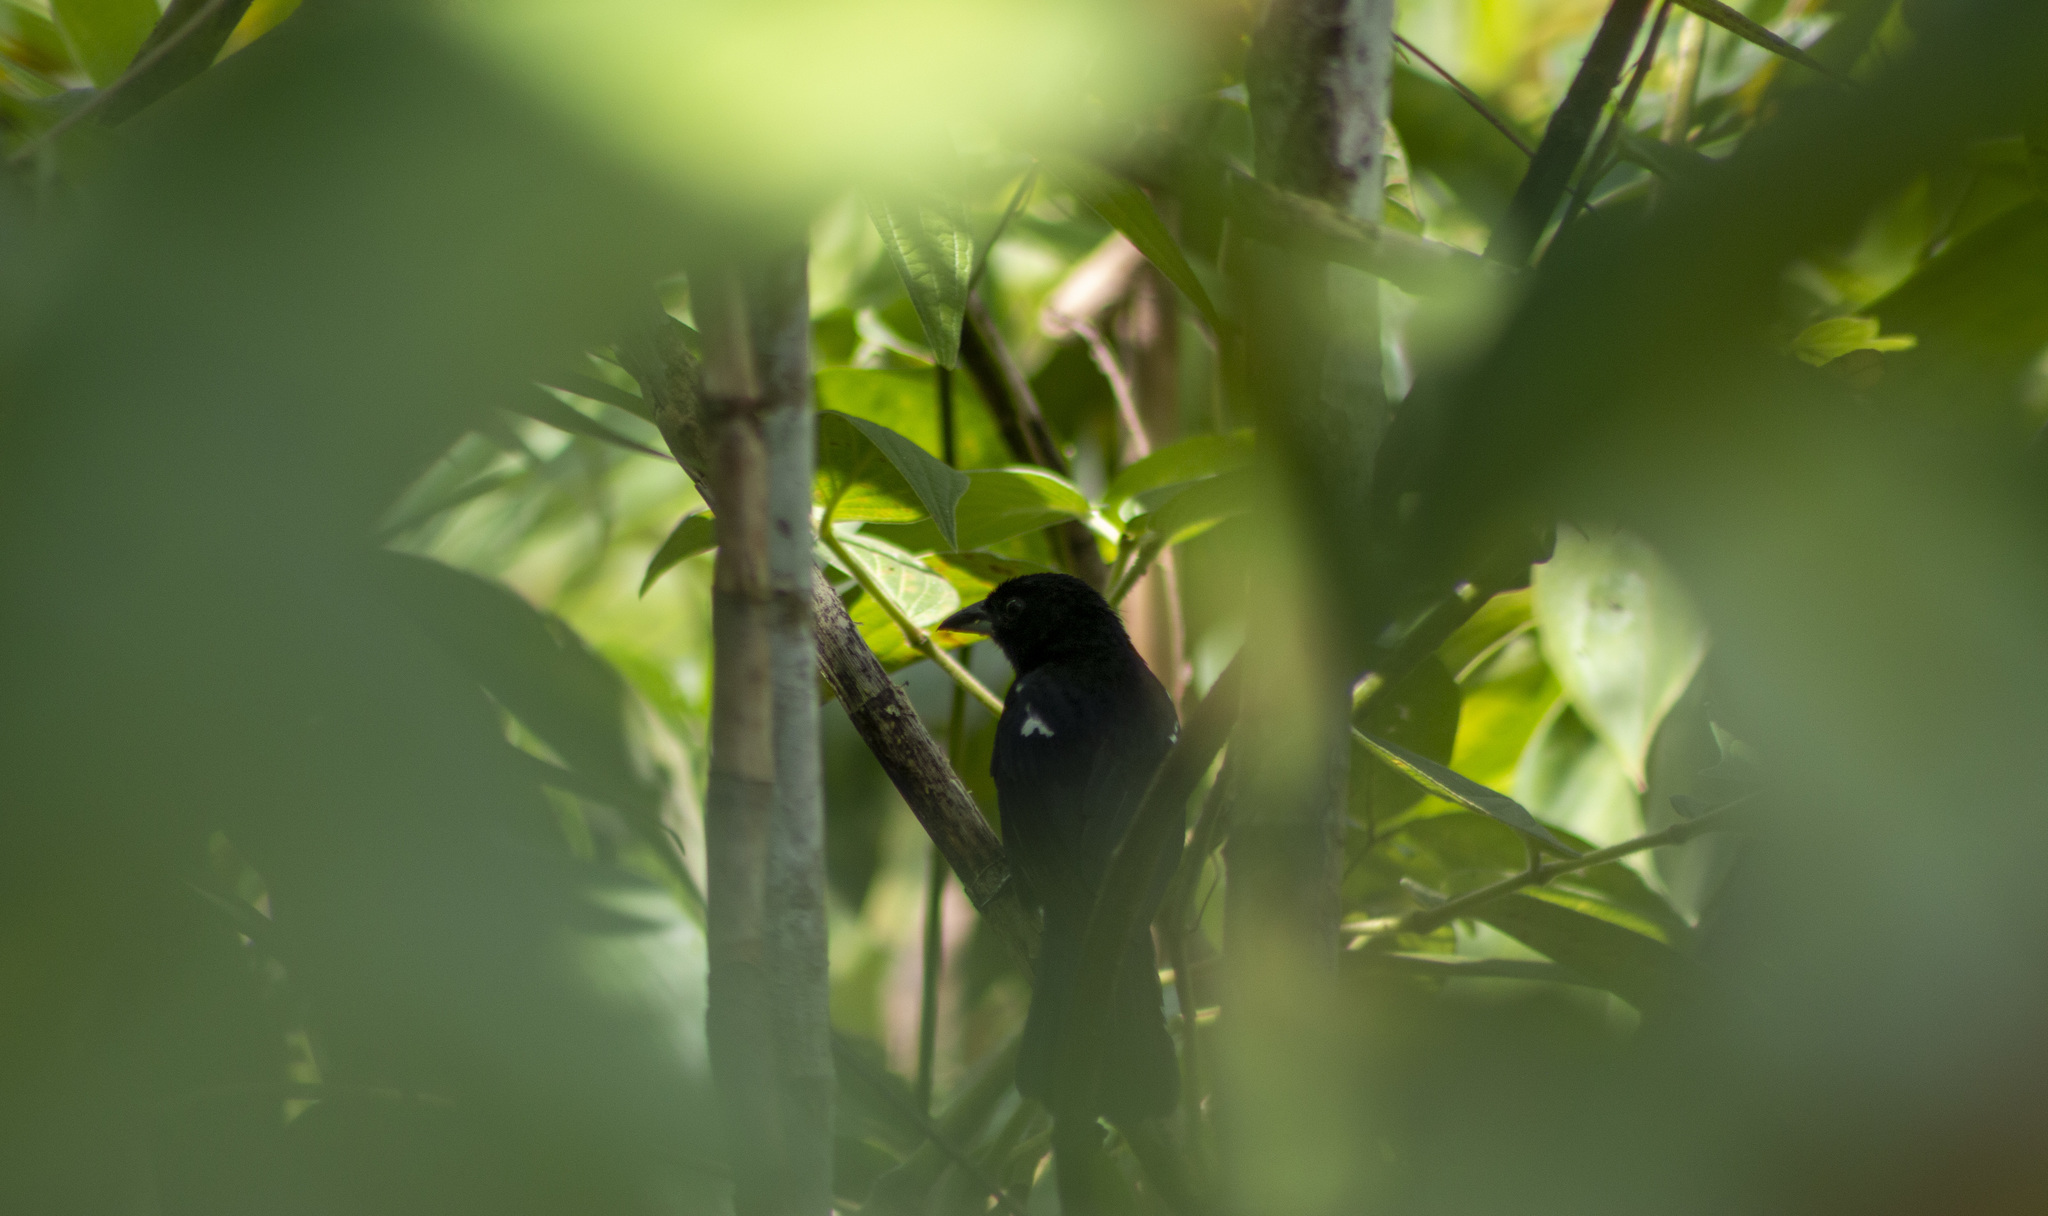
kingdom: Animalia
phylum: Chordata
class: Aves
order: Passeriformes
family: Thraupidae
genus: Tachyphonus
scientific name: Tachyphonus rufus
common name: White-lined tanager
